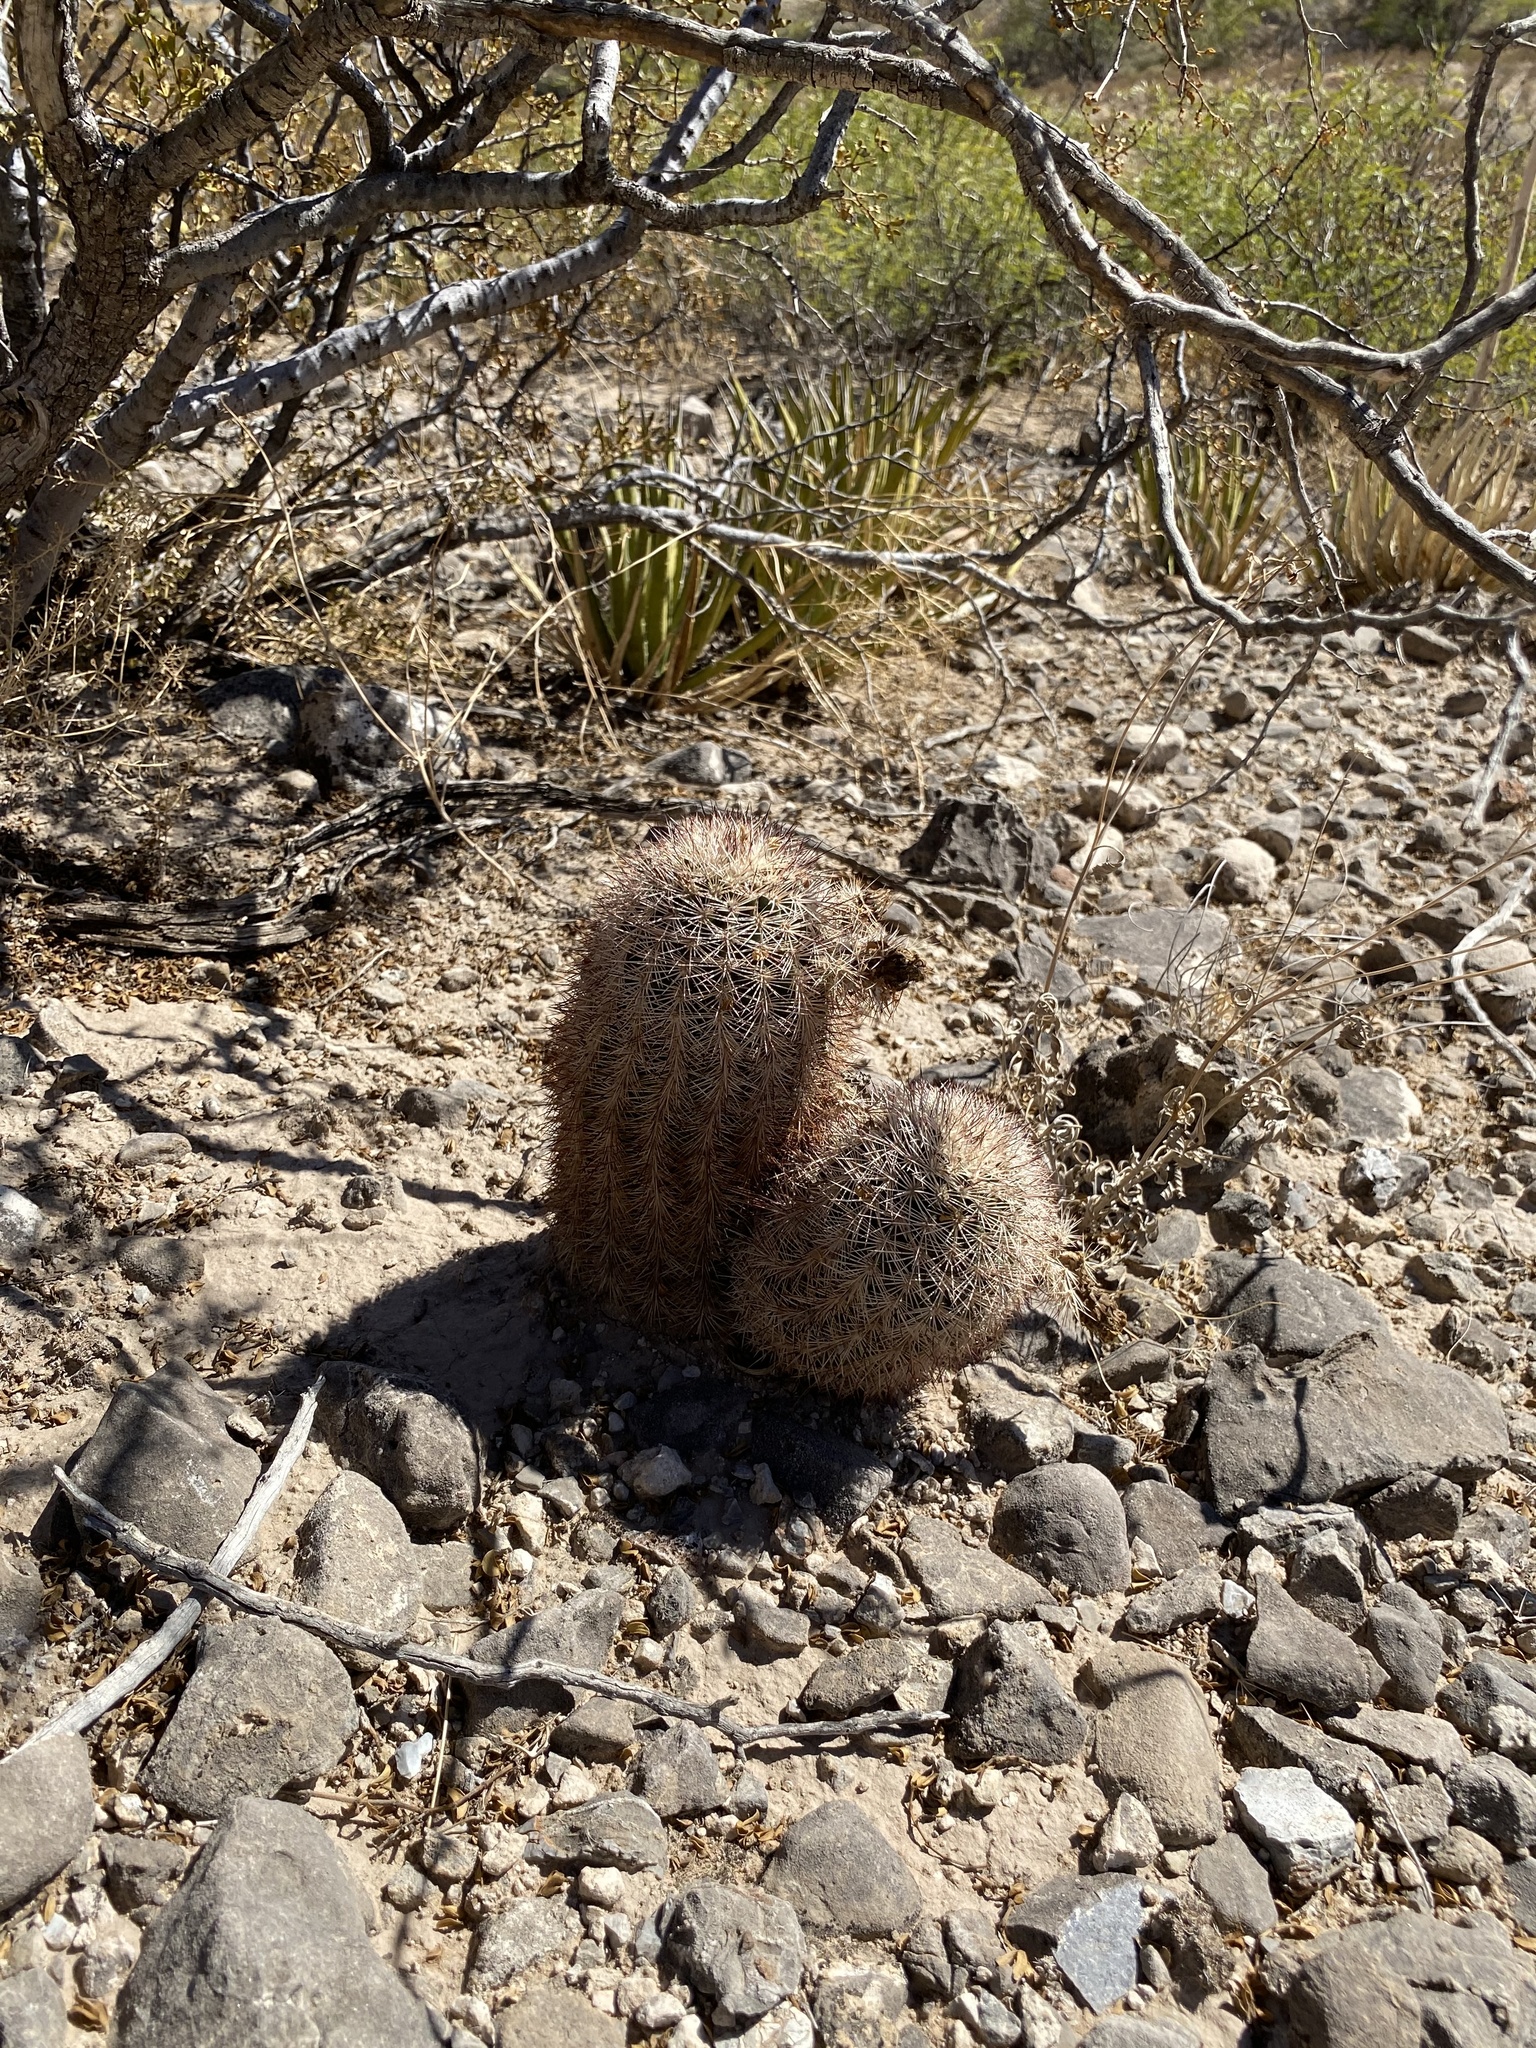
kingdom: Plantae
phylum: Tracheophyta
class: Magnoliopsida
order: Caryophyllales
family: Cactaceae
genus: Echinocereus
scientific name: Echinocereus dasyacanthus
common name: Spiny hedgehog cactus
